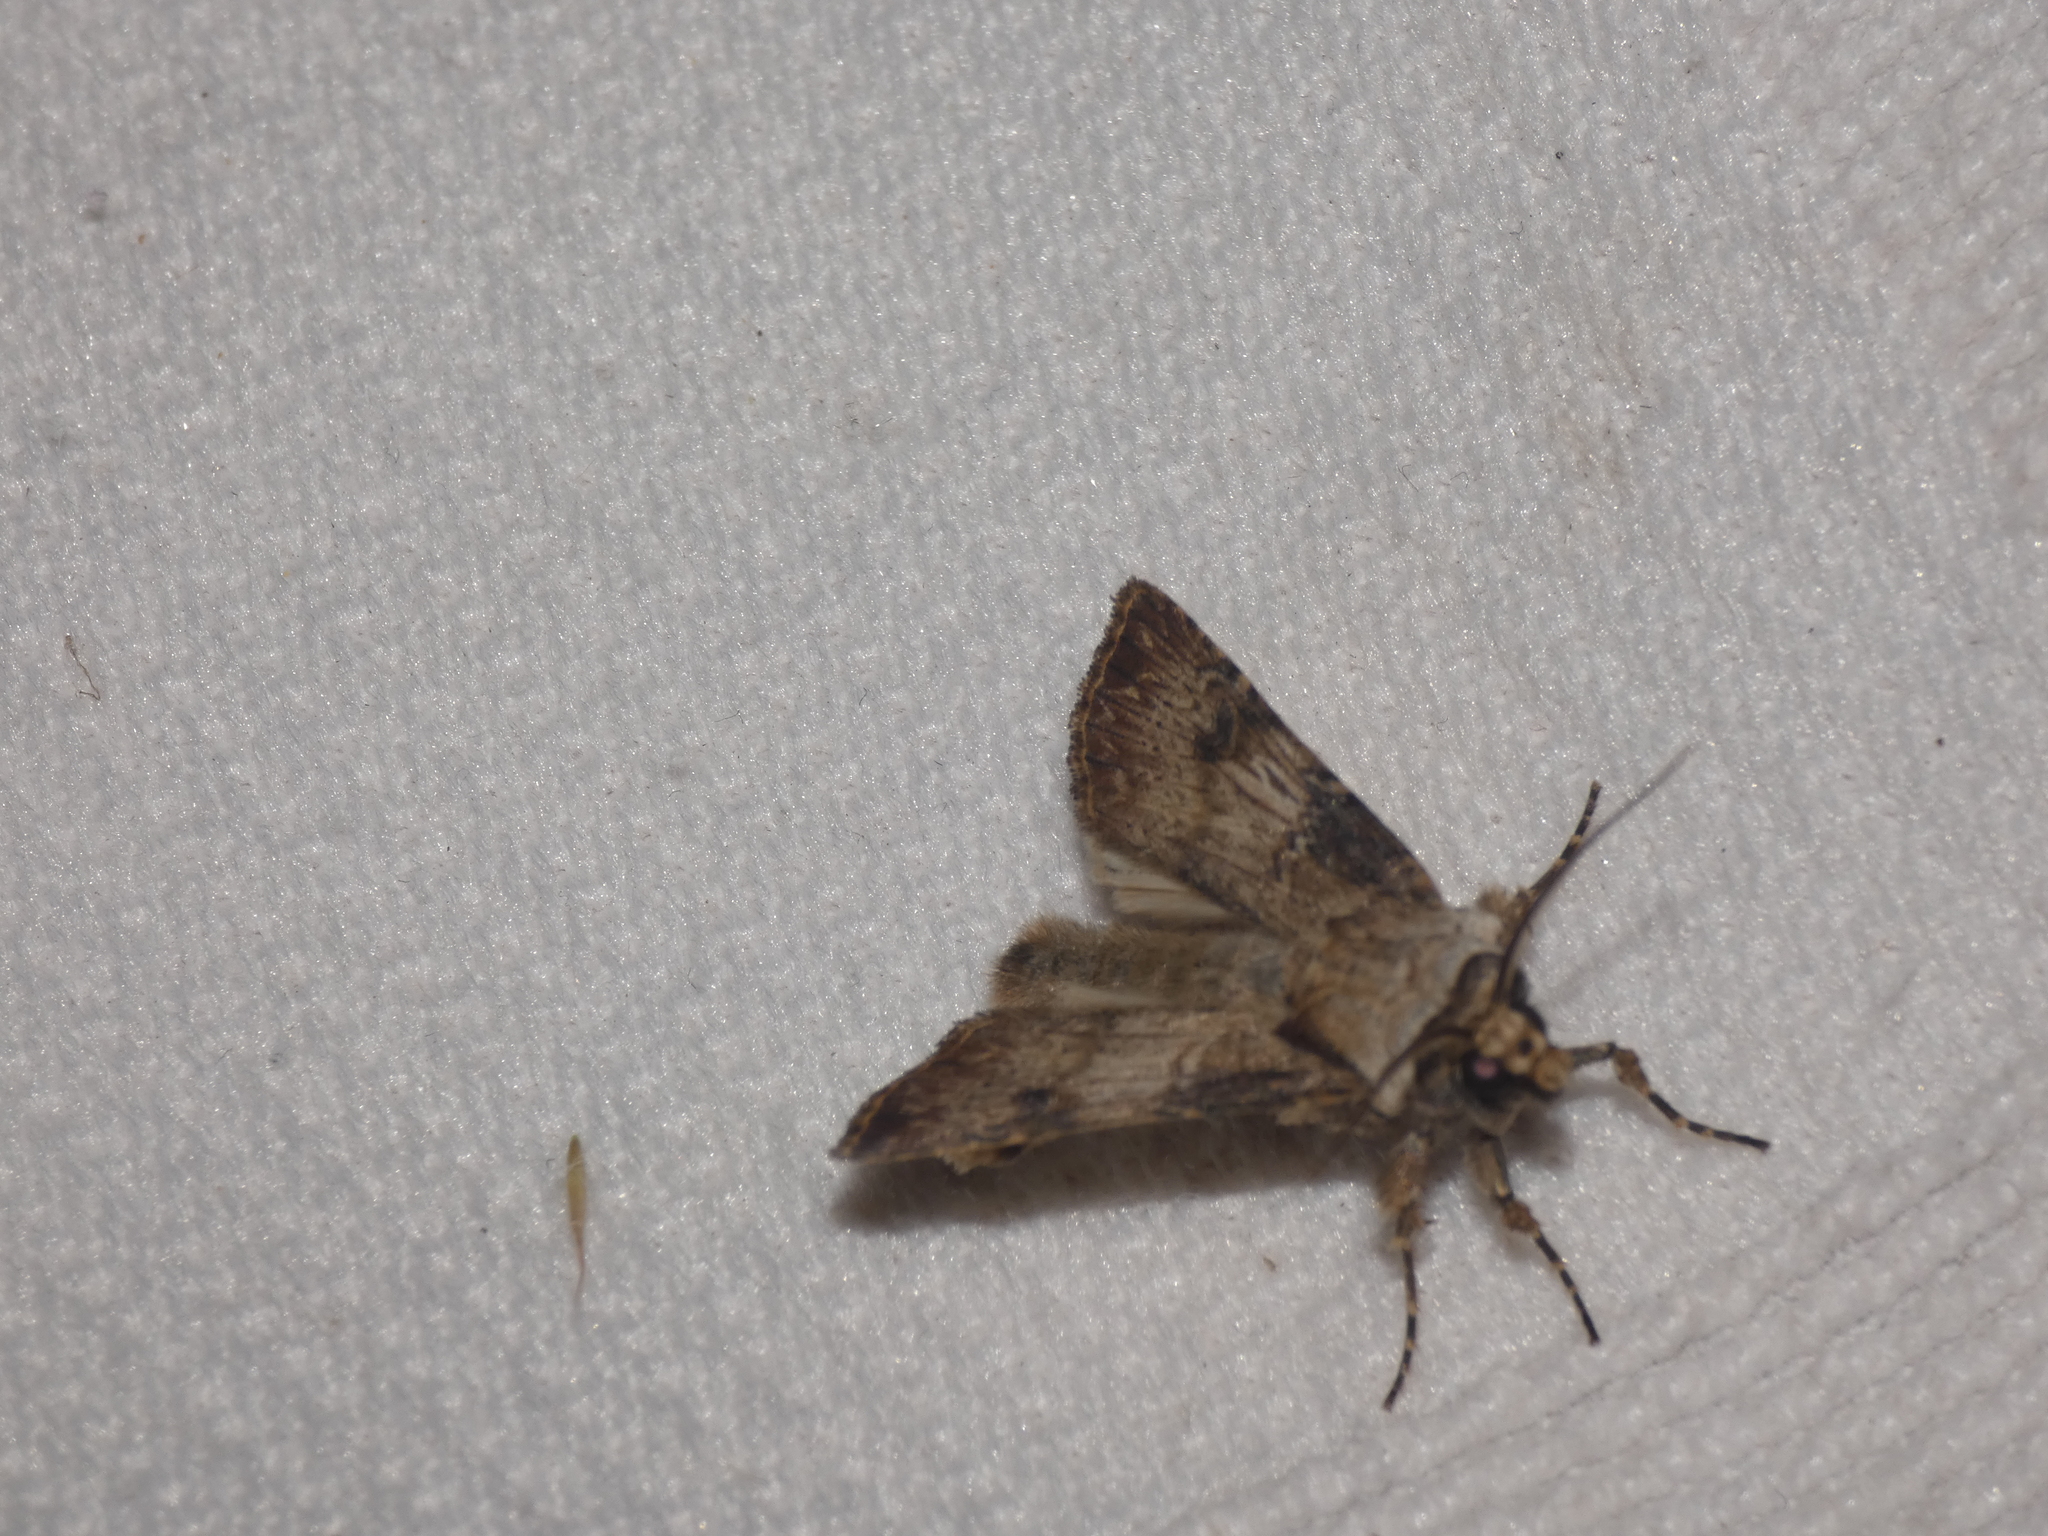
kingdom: Animalia
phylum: Arthropoda
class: Insecta
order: Lepidoptera
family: Noctuidae
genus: Agrotis
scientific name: Agrotis puta
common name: Shuttle-shaped dart
